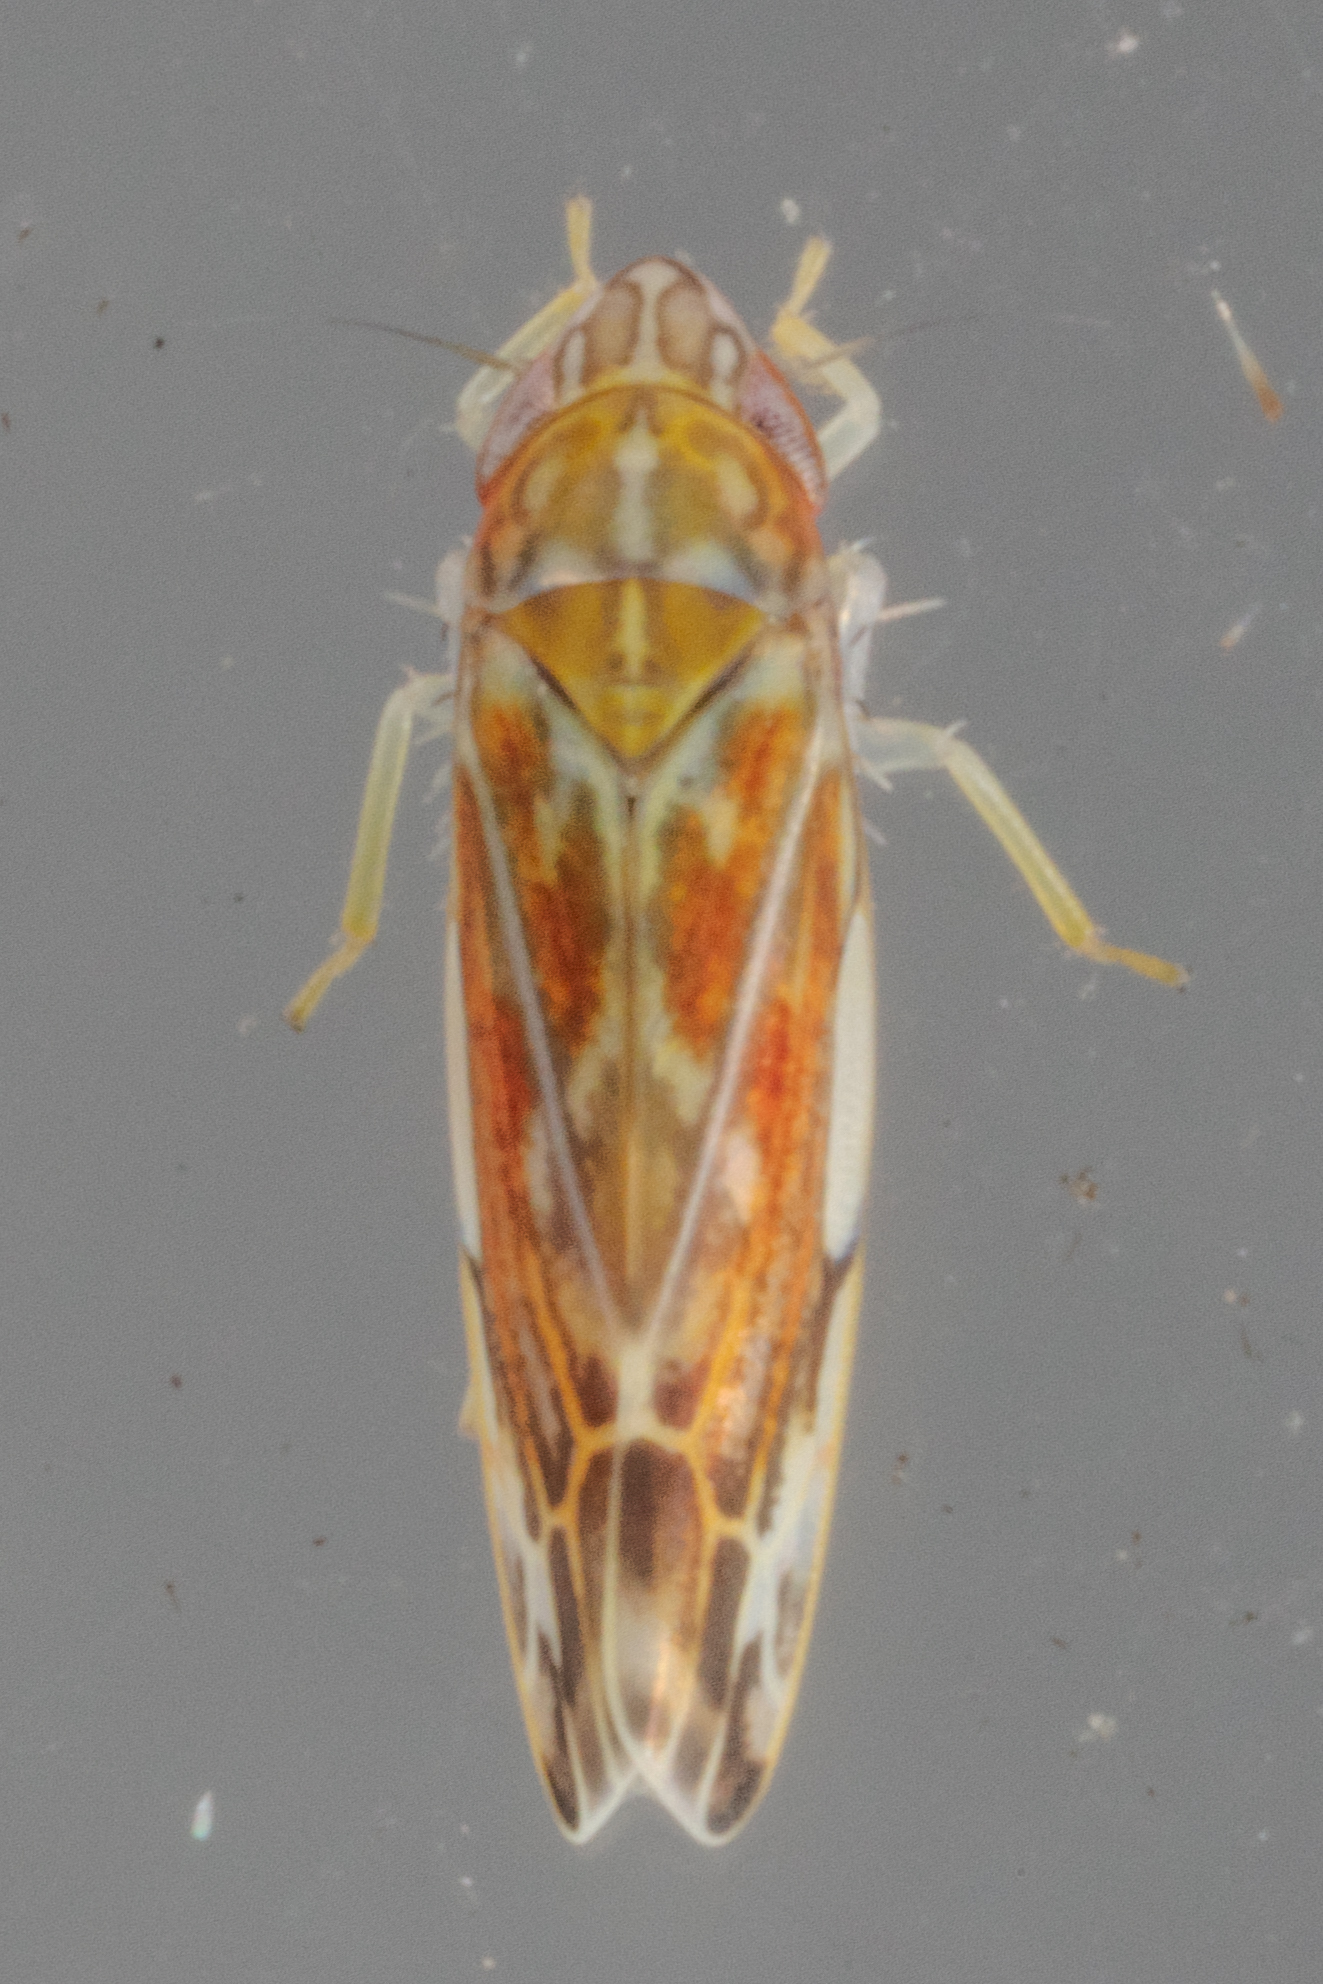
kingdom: Animalia
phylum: Arthropoda
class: Insecta
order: Hemiptera
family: Cicadellidae
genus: Erasmoneura
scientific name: Erasmoneura vulnerata
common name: The wounded leafhopper
